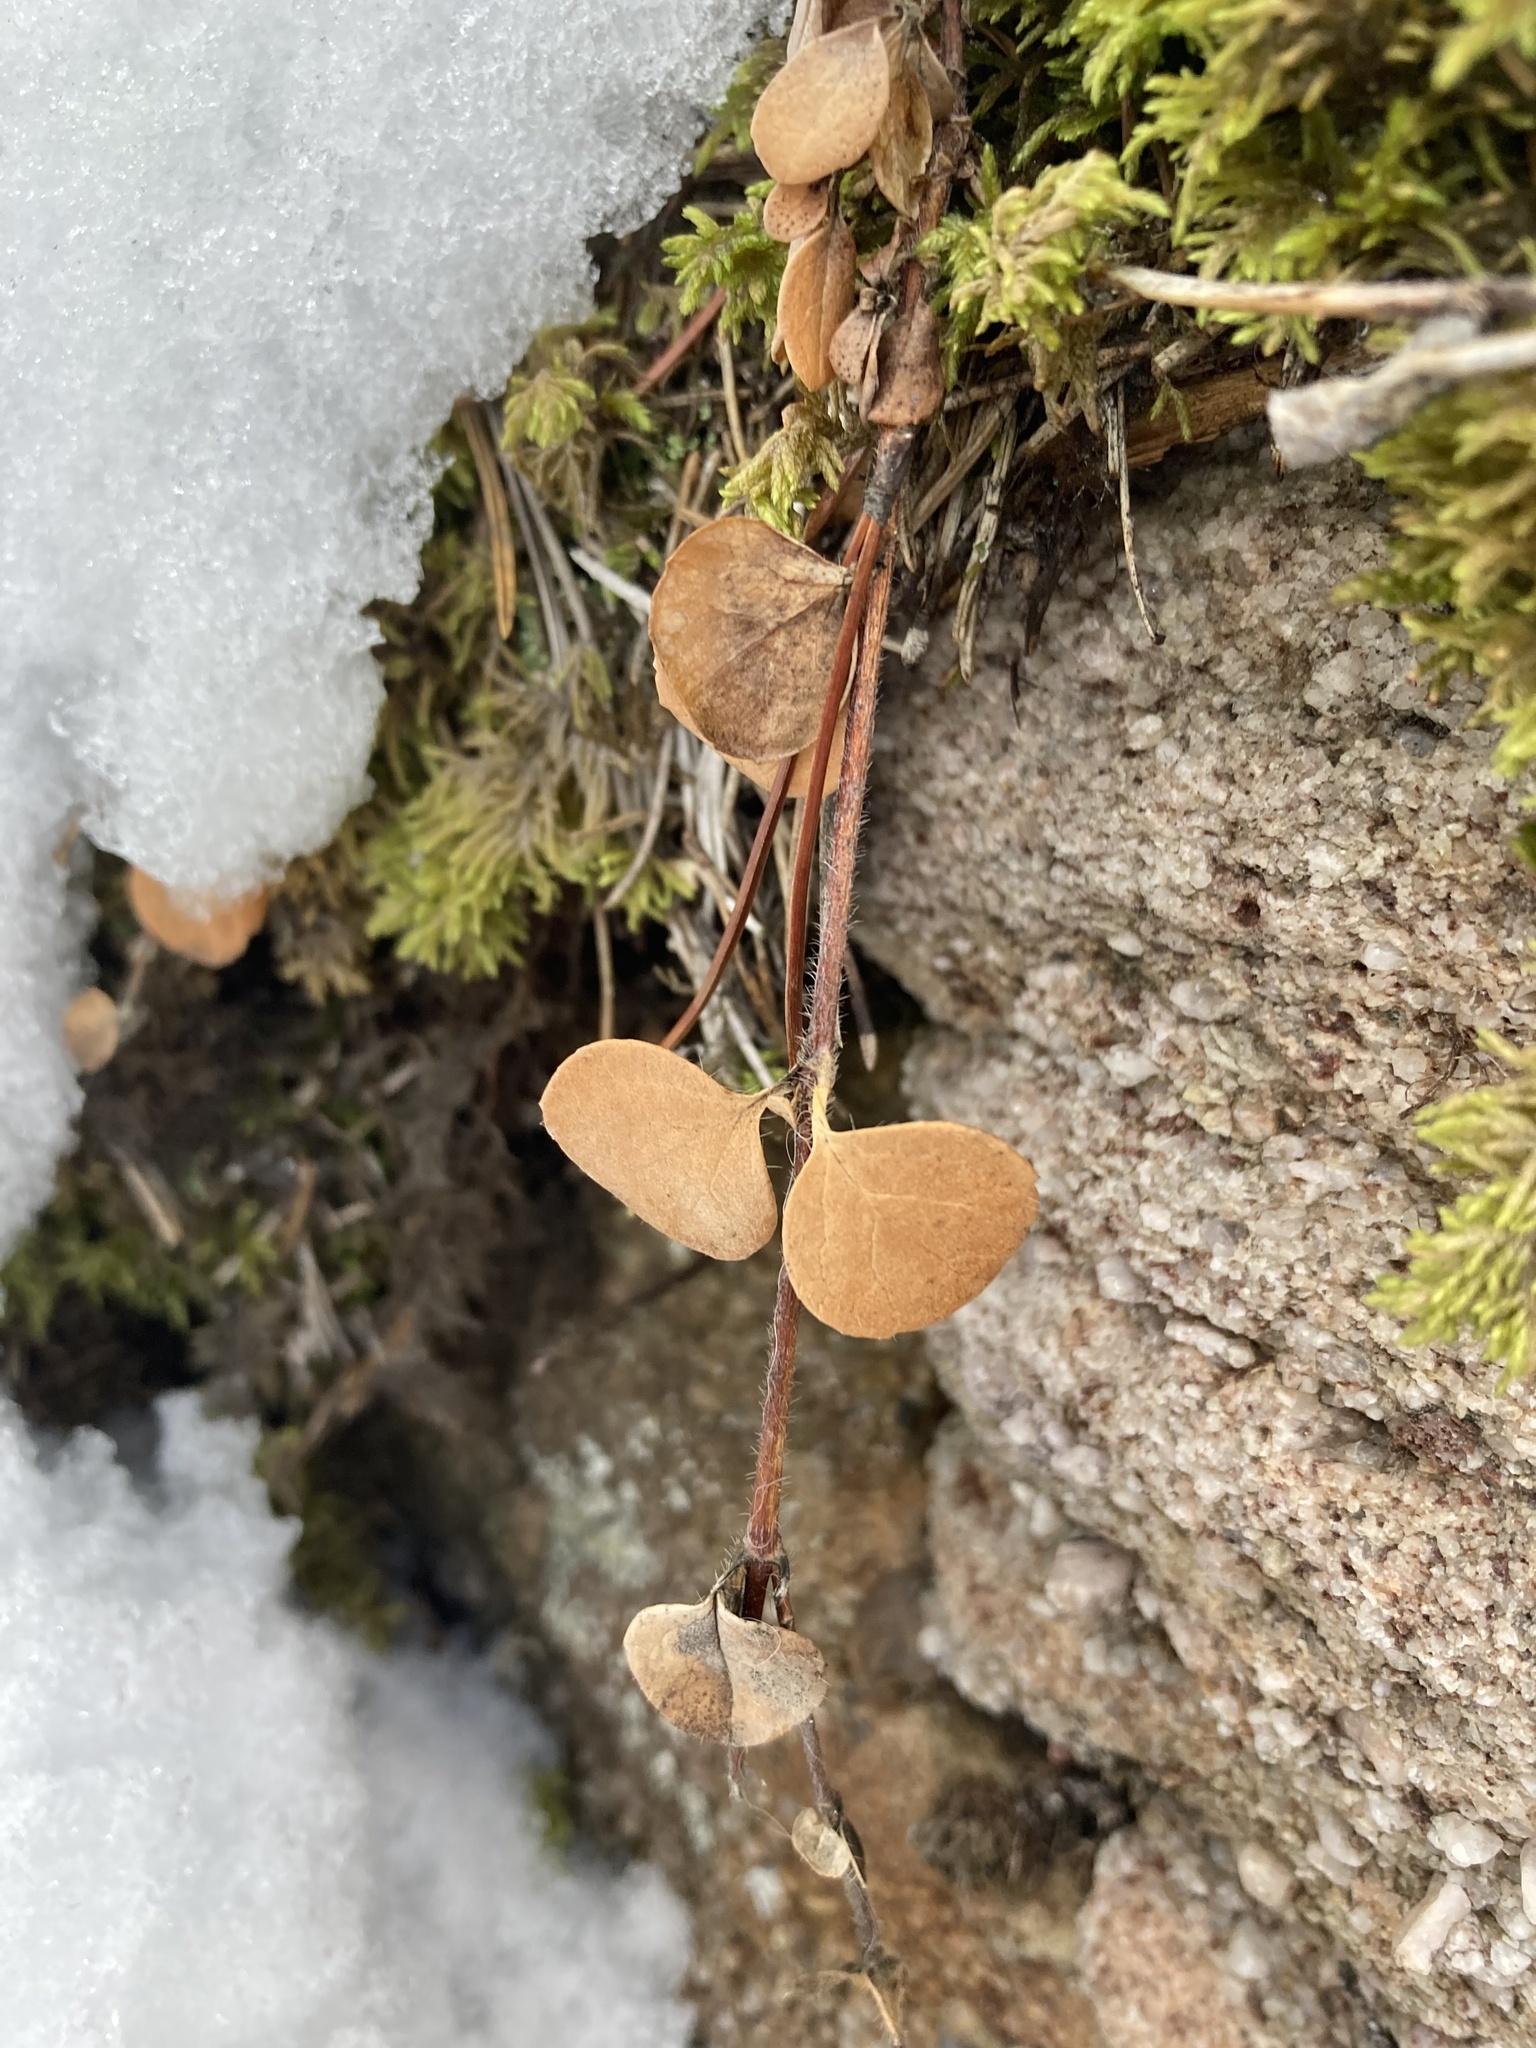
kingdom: Plantae
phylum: Tracheophyta
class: Magnoliopsida
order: Dipsacales
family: Caprifoliaceae
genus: Linnaea
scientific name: Linnaea borealis
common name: Twinflower
